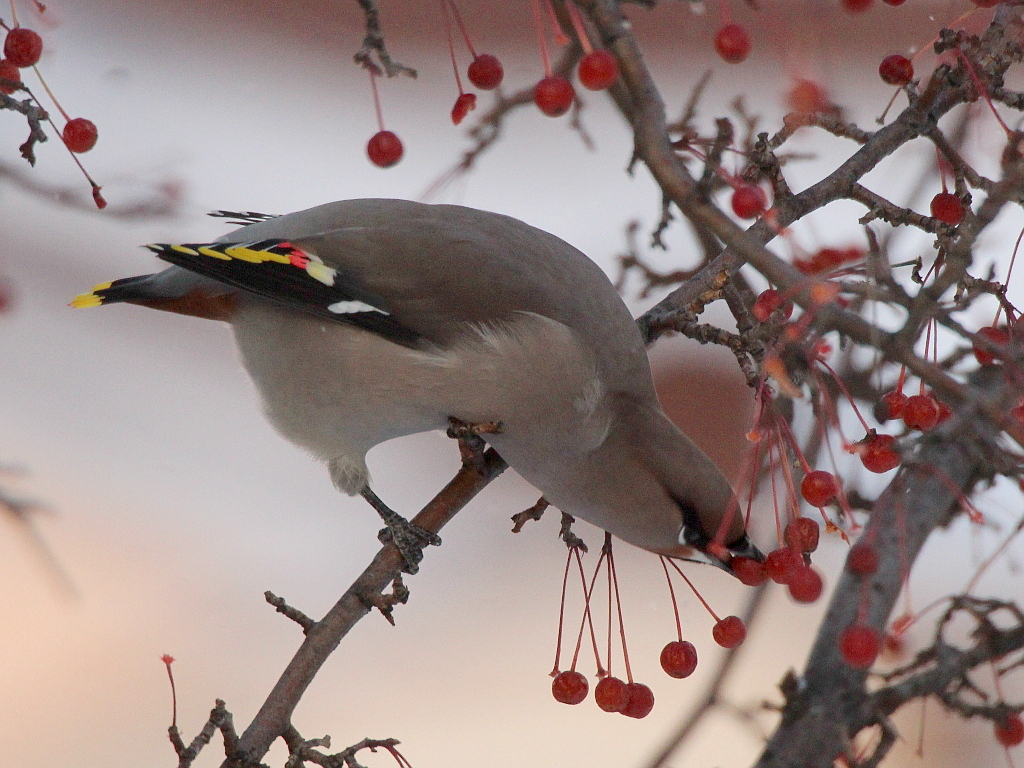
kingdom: Animalia
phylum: Chordata
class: Aves
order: Passeriformes
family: Bombycillidae
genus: Bombycilla
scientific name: Bombycilla garrulus
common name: Bohemian waxwing
